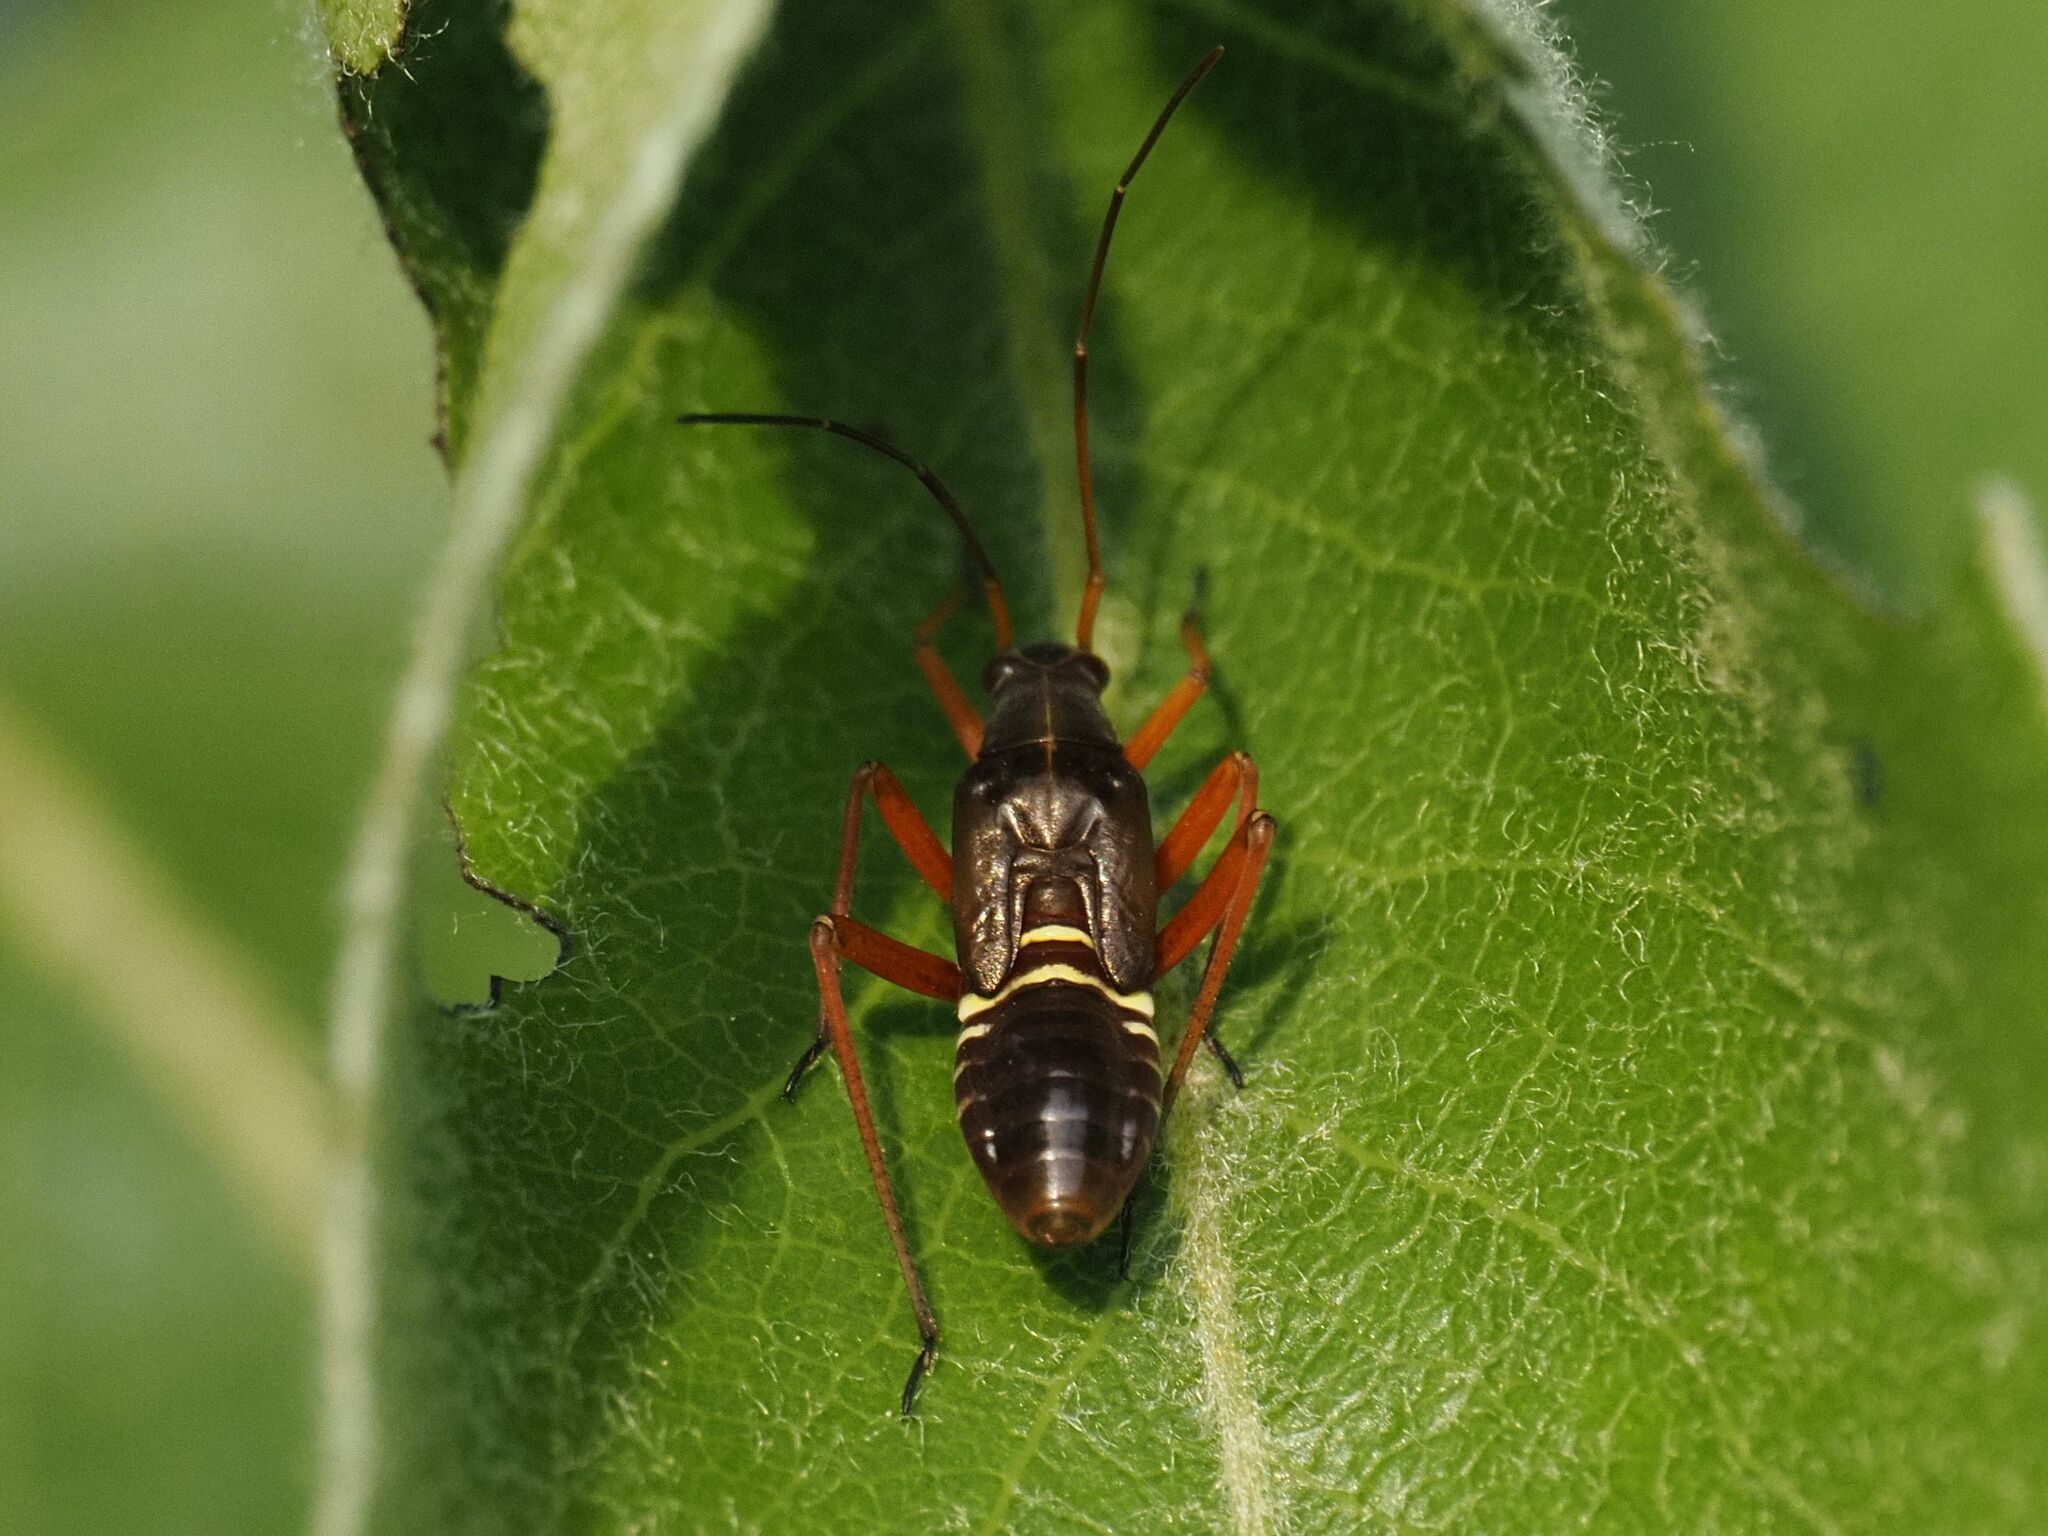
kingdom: Animalia
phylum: Arthropoda
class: Insecta
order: Hemiptera
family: Miridae
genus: Miris
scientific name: Miris striatus
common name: Fine streaked bugkin
